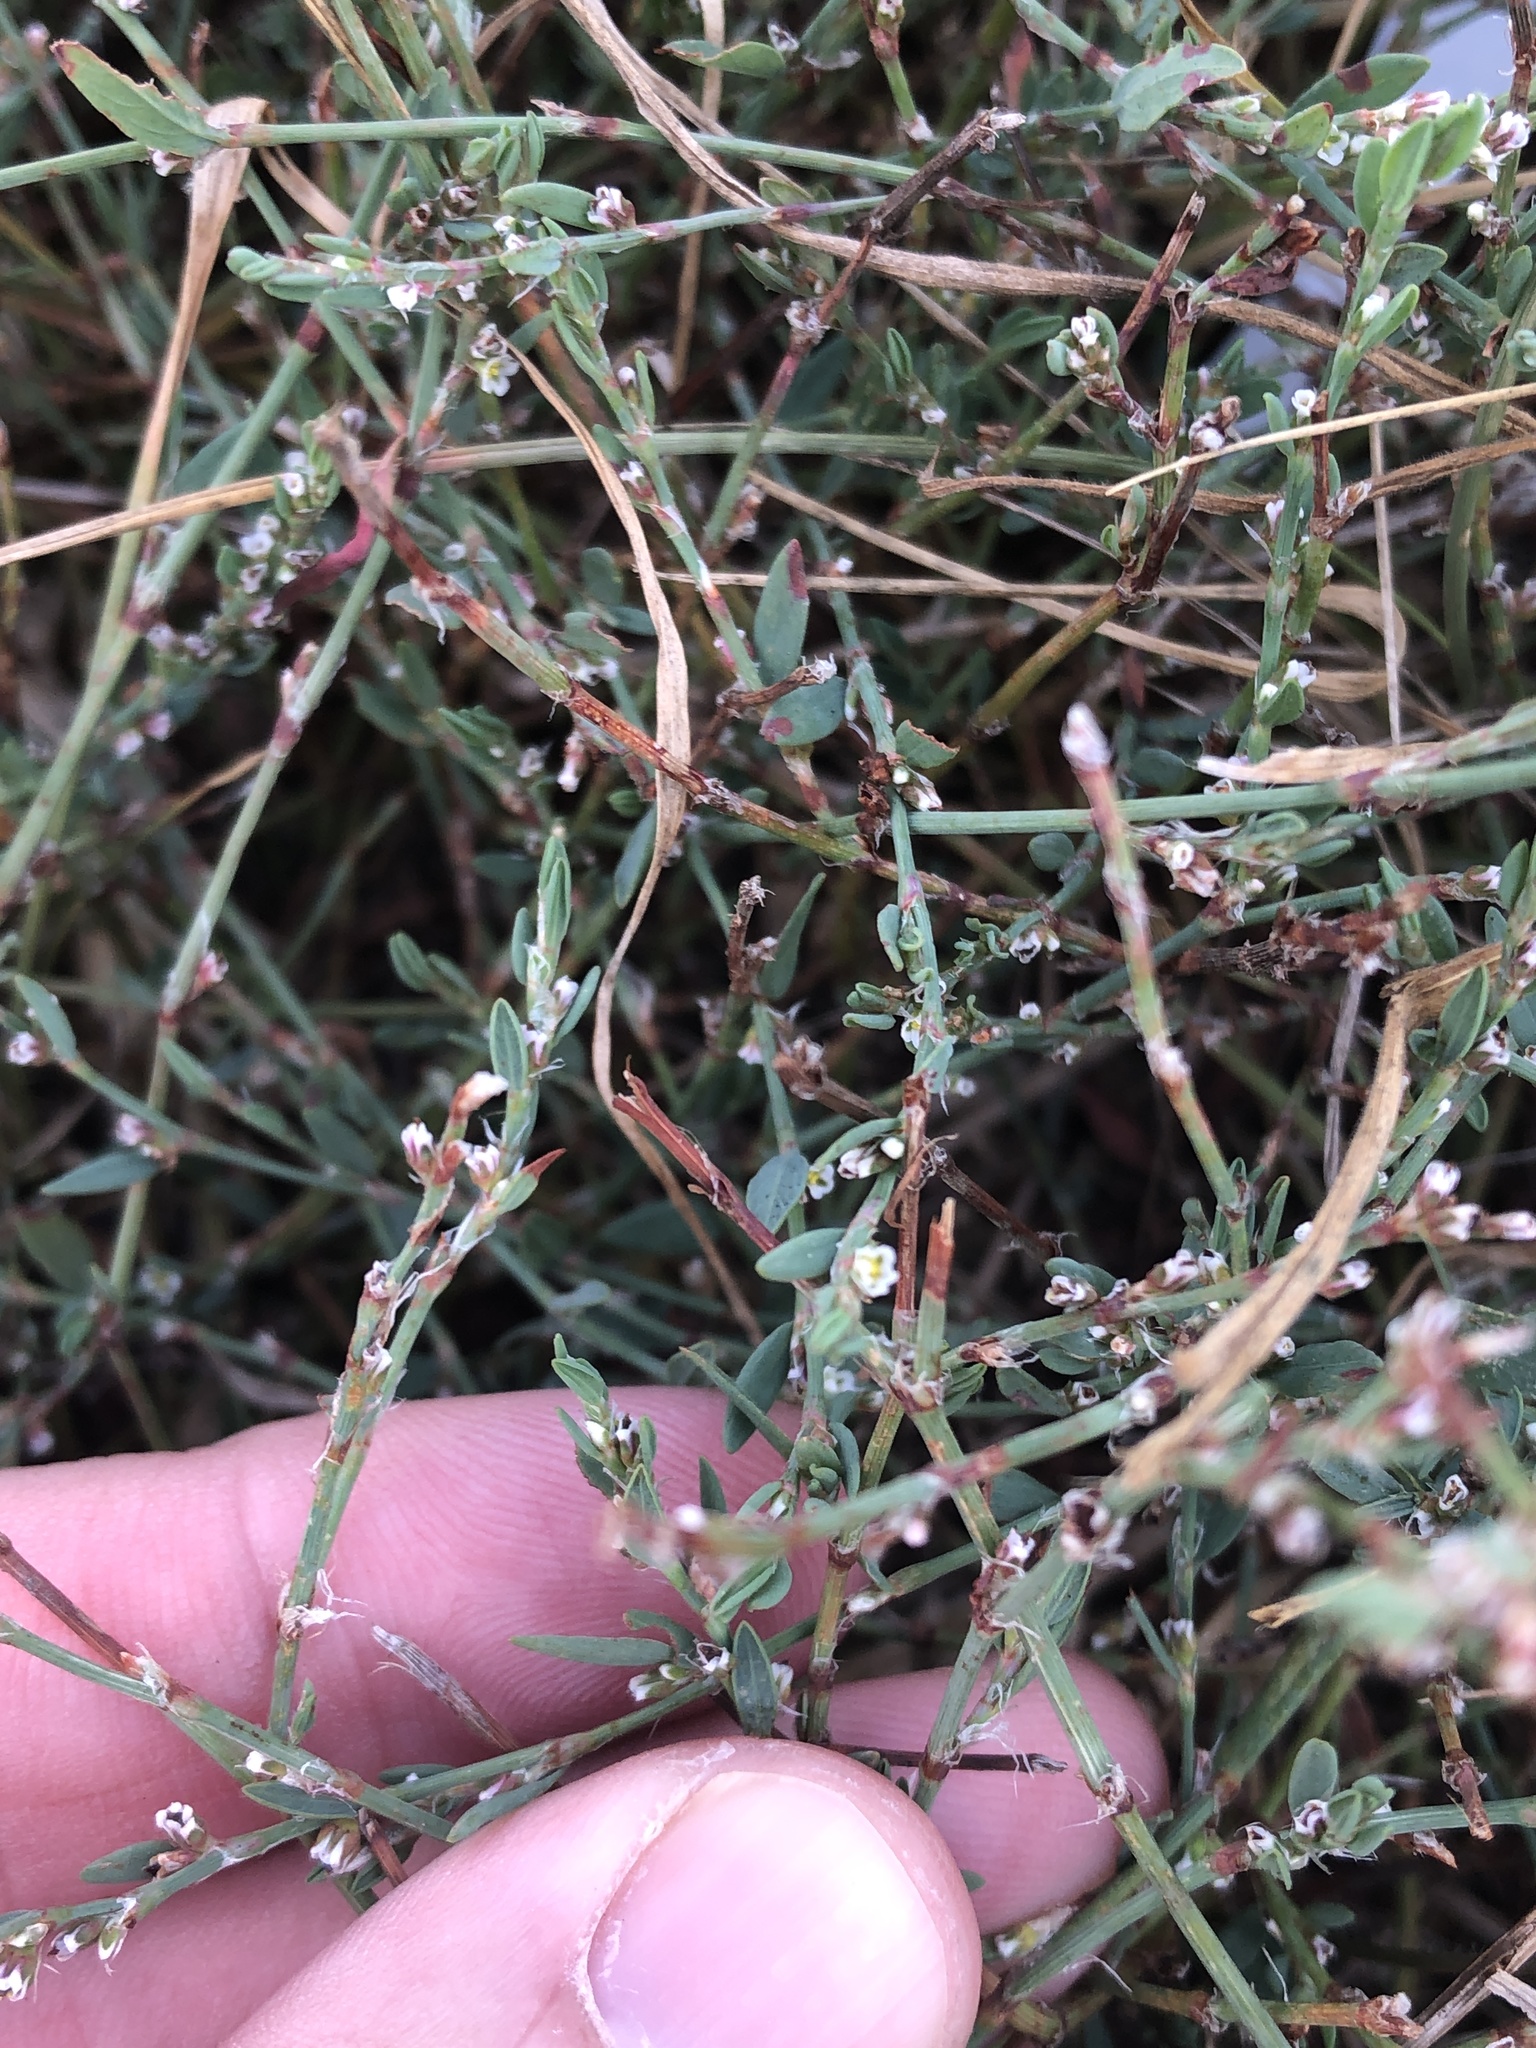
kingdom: Plantae
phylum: Tracheophyta
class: Magnoliopsida
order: Caryophyllales
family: Polygonaceae
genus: Polygonum
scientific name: Polygonum aviculare
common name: Prostrate knotweed
